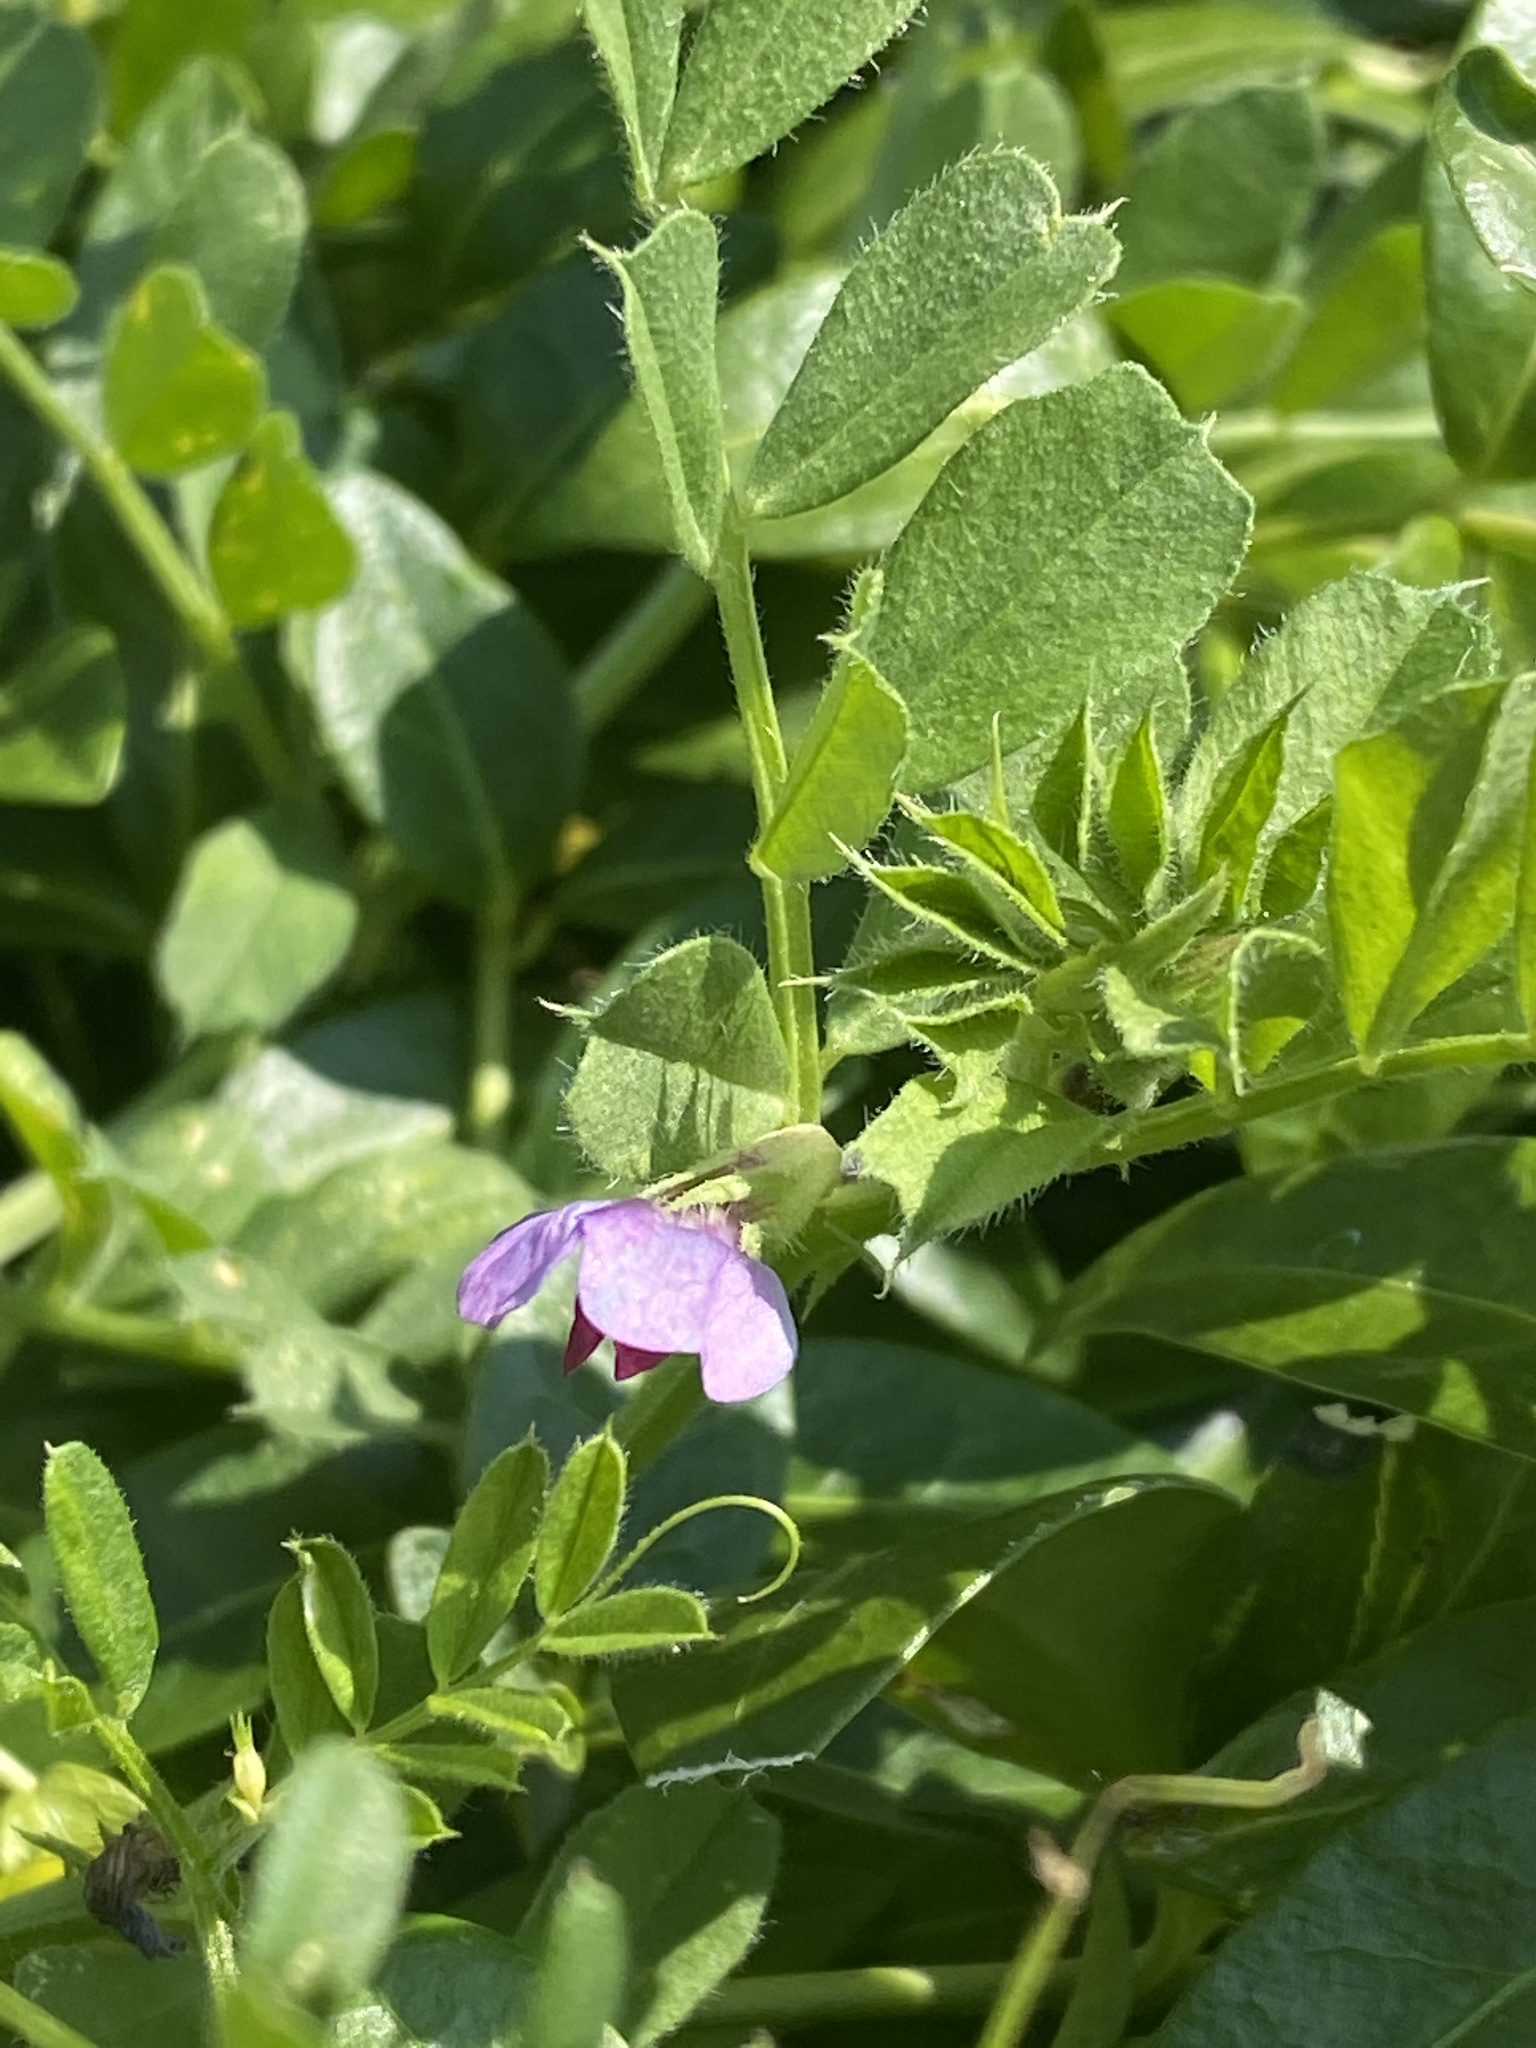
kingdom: Plantae
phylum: Tracheophyta
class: Magnoliopsida
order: Fabales
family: Fabaceae
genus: Vicia
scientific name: Vicia sativa
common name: Garden vetch
